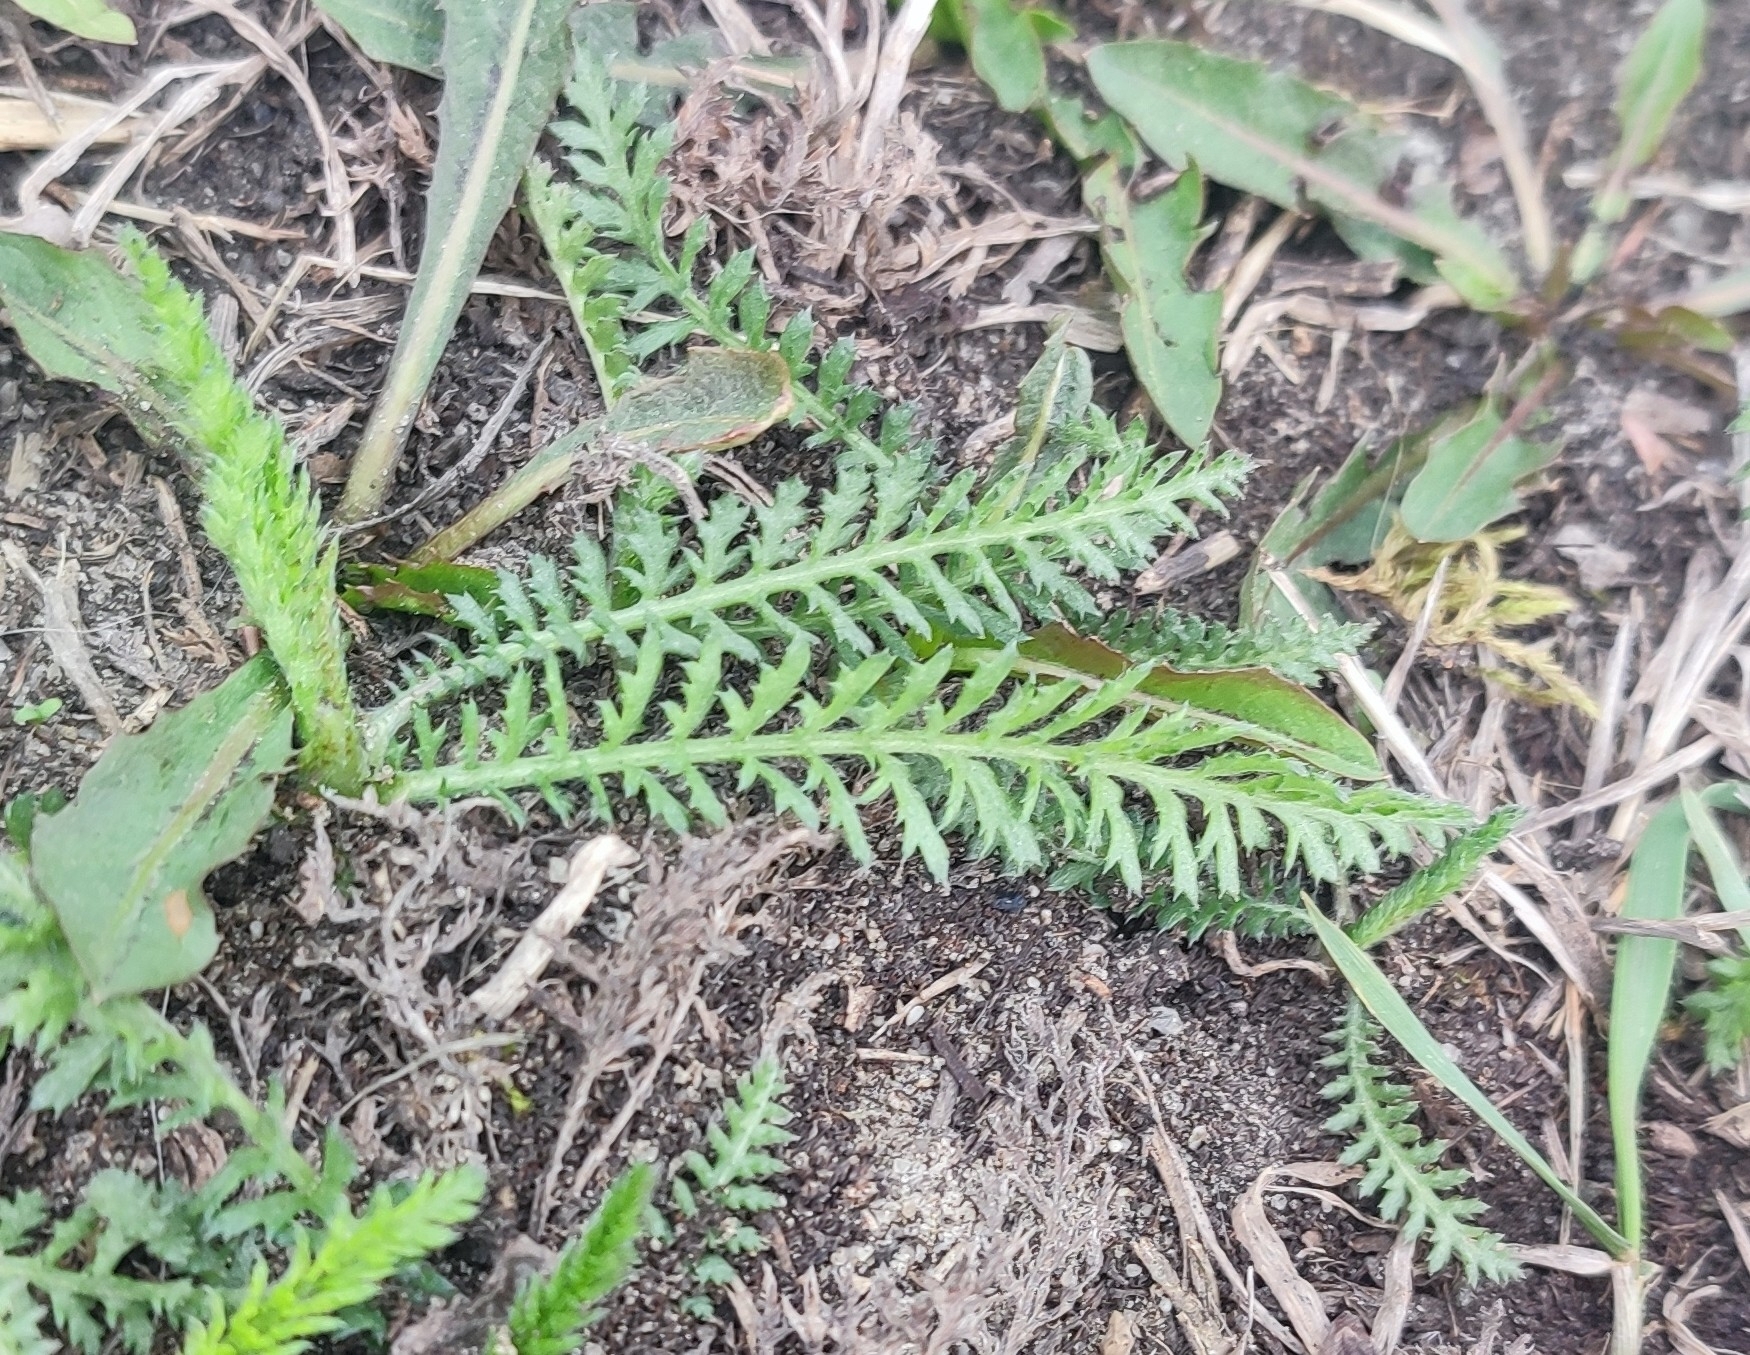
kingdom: Plantae
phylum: Tracheophyta
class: Magnoliopsida
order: Asterales
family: Asteraceae
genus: Achillea
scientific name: Achillea millefolium
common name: Yarrow
